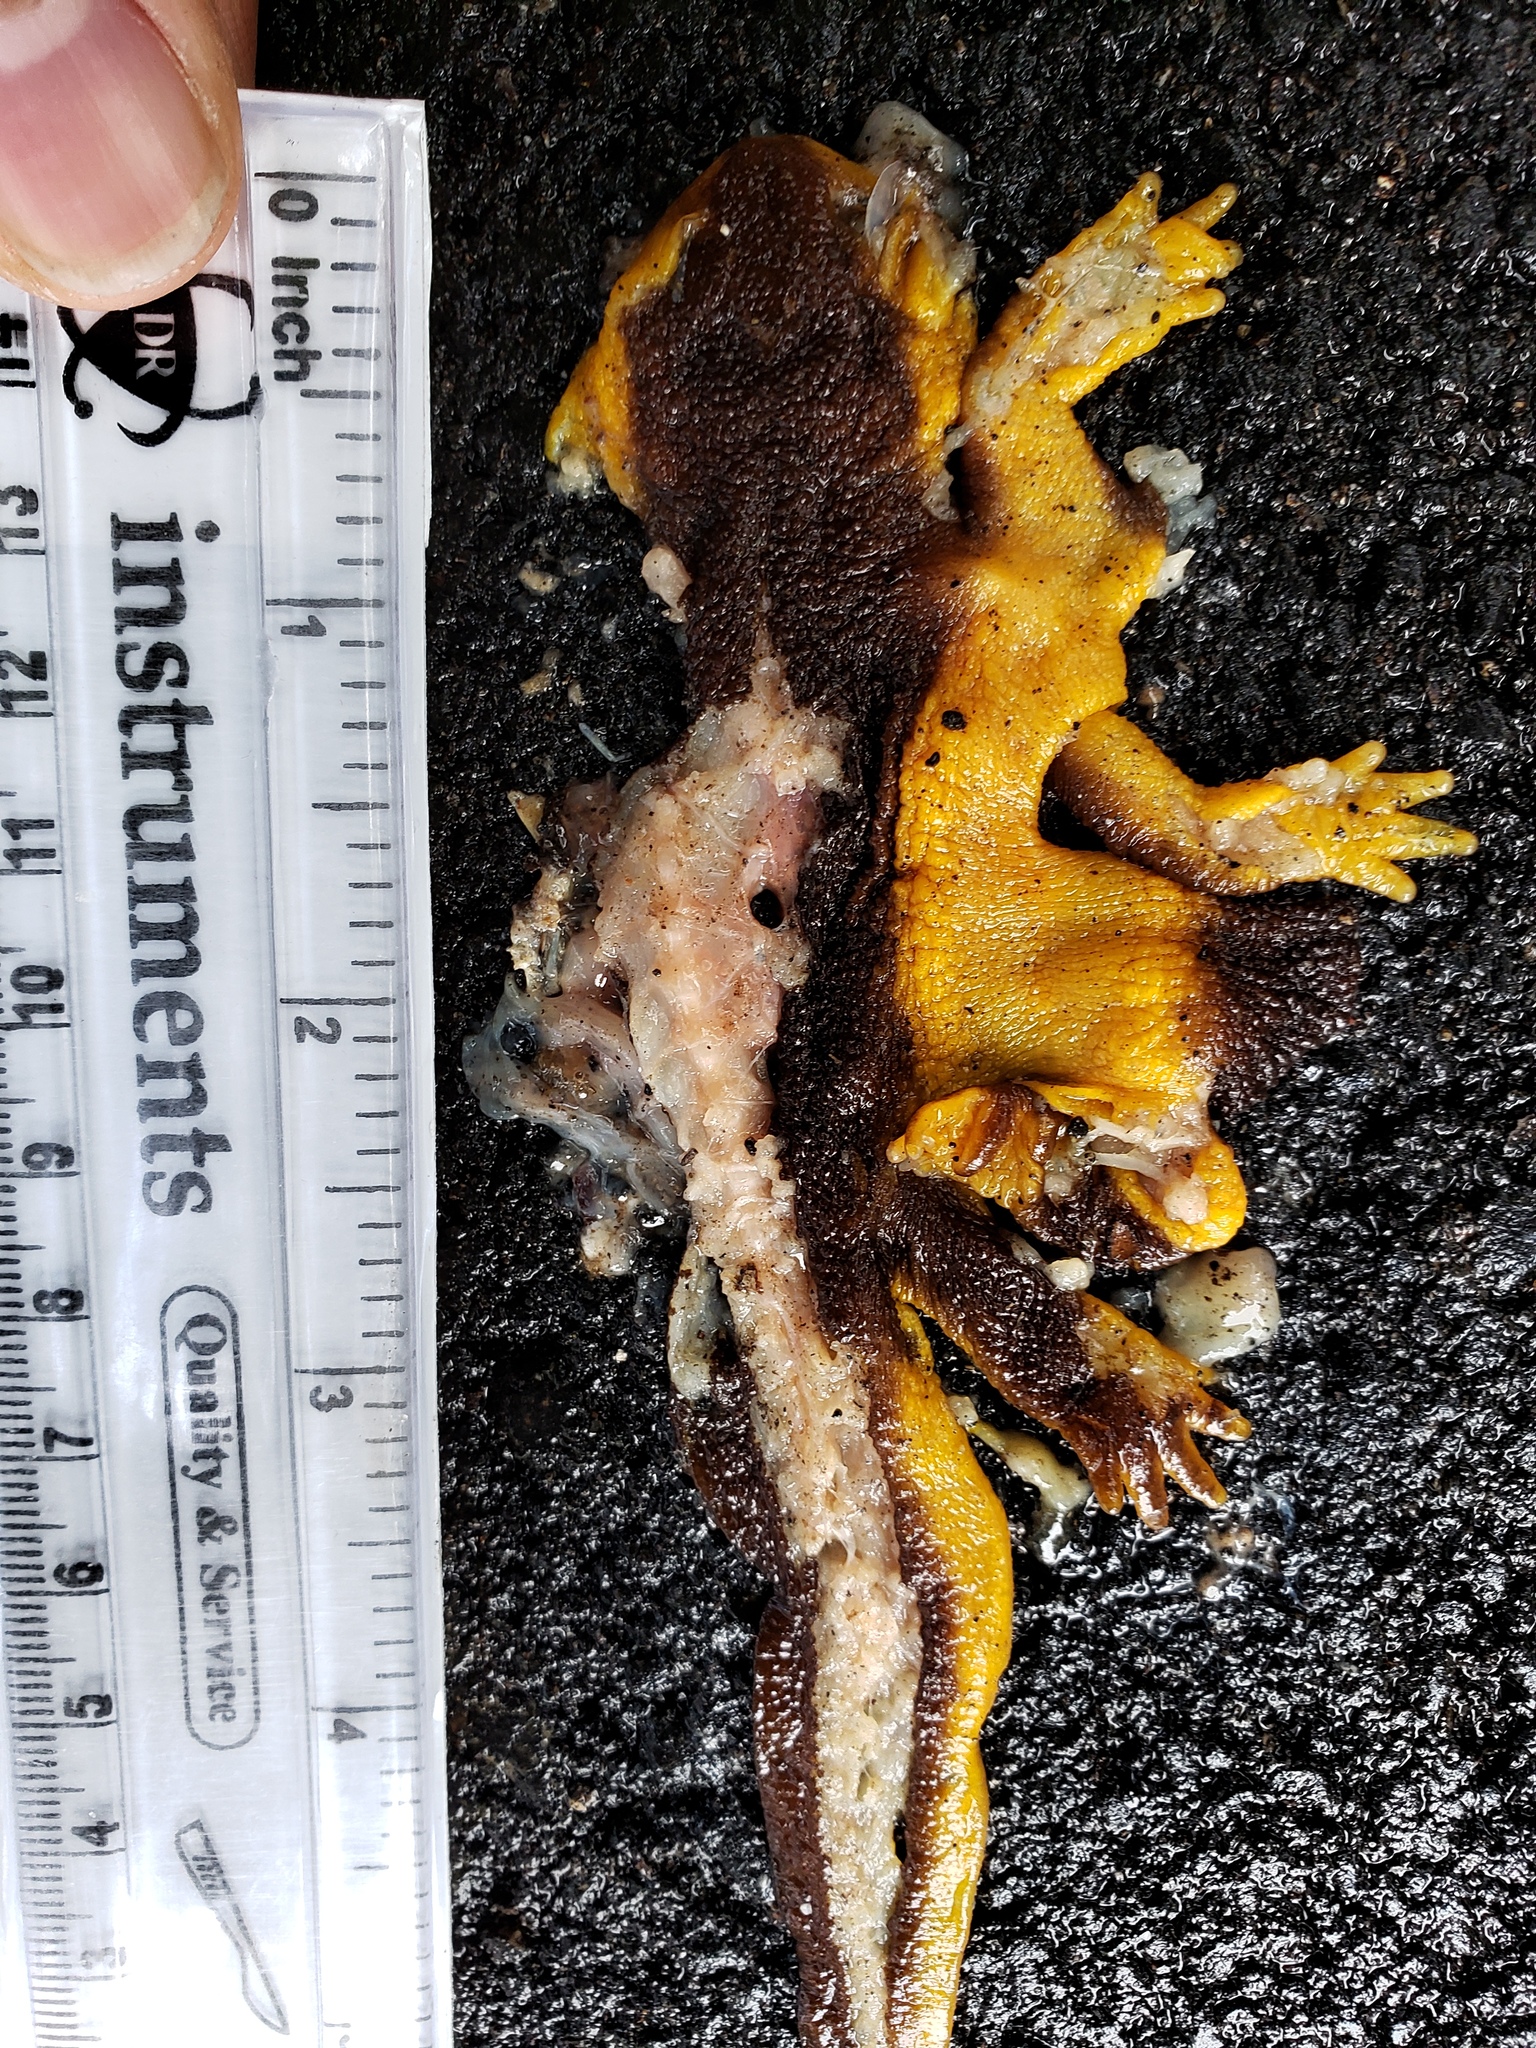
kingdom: Animalia
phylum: Chordata
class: Amphibia
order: Caudata
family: Salamandridae
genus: Taricha
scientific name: Taricha
